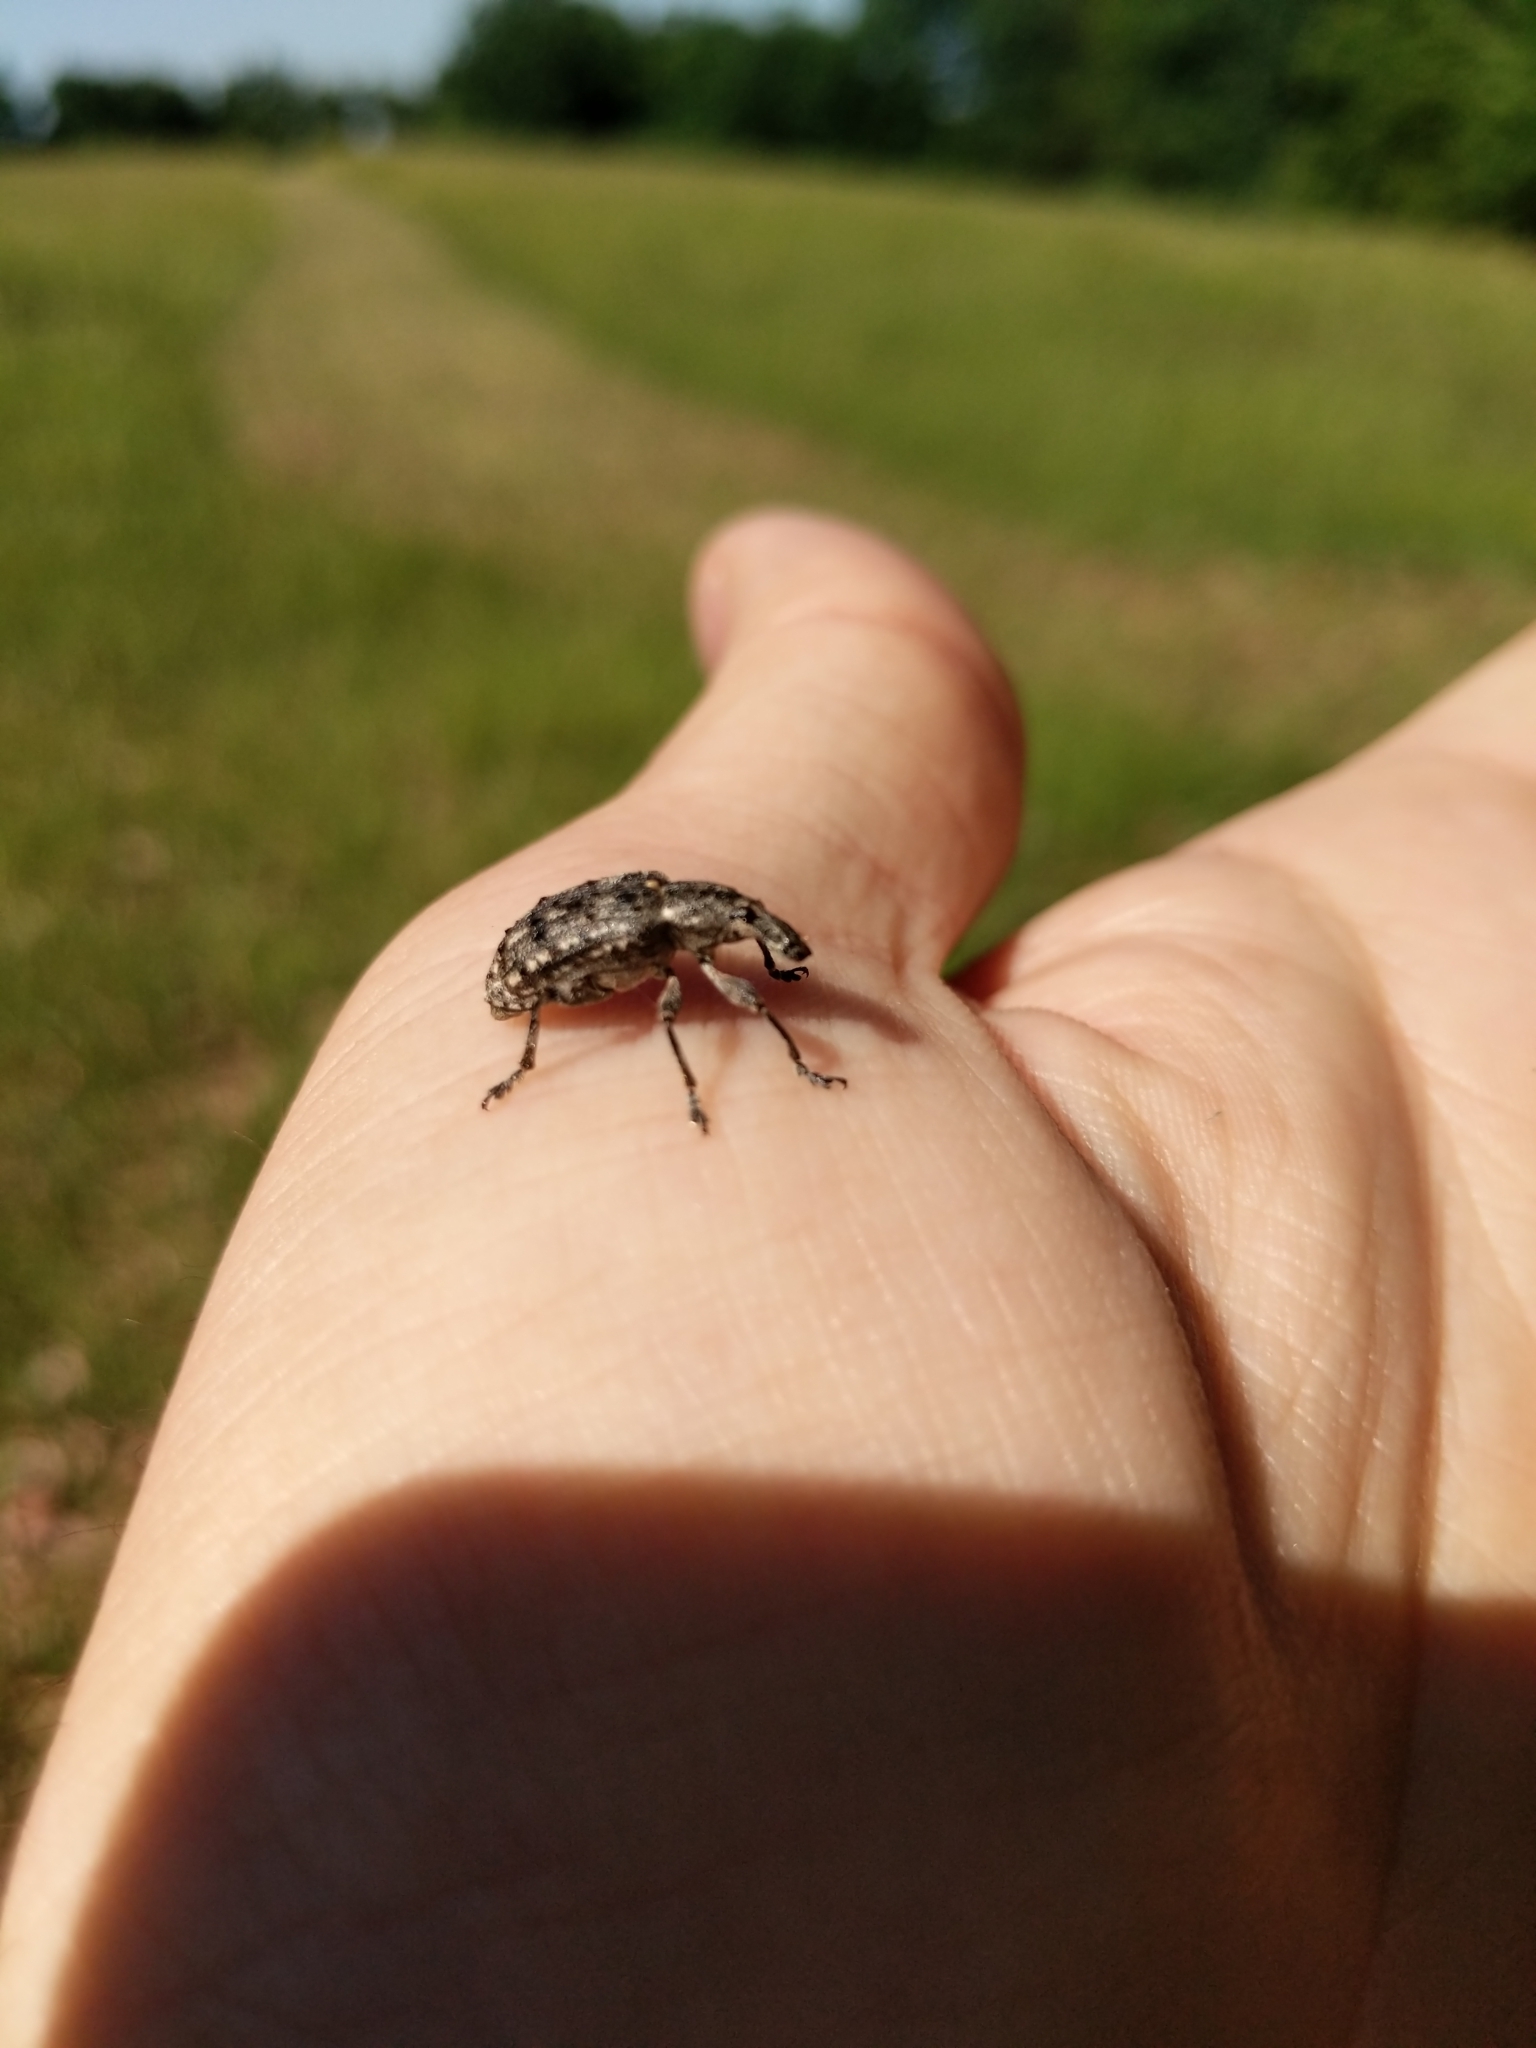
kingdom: Animalia
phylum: Arthropoda
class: Insecta
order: Coleoptera
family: Ithyceridae
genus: Ithycerus
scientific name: Ithycerus noveboracensis
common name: New york weevil
